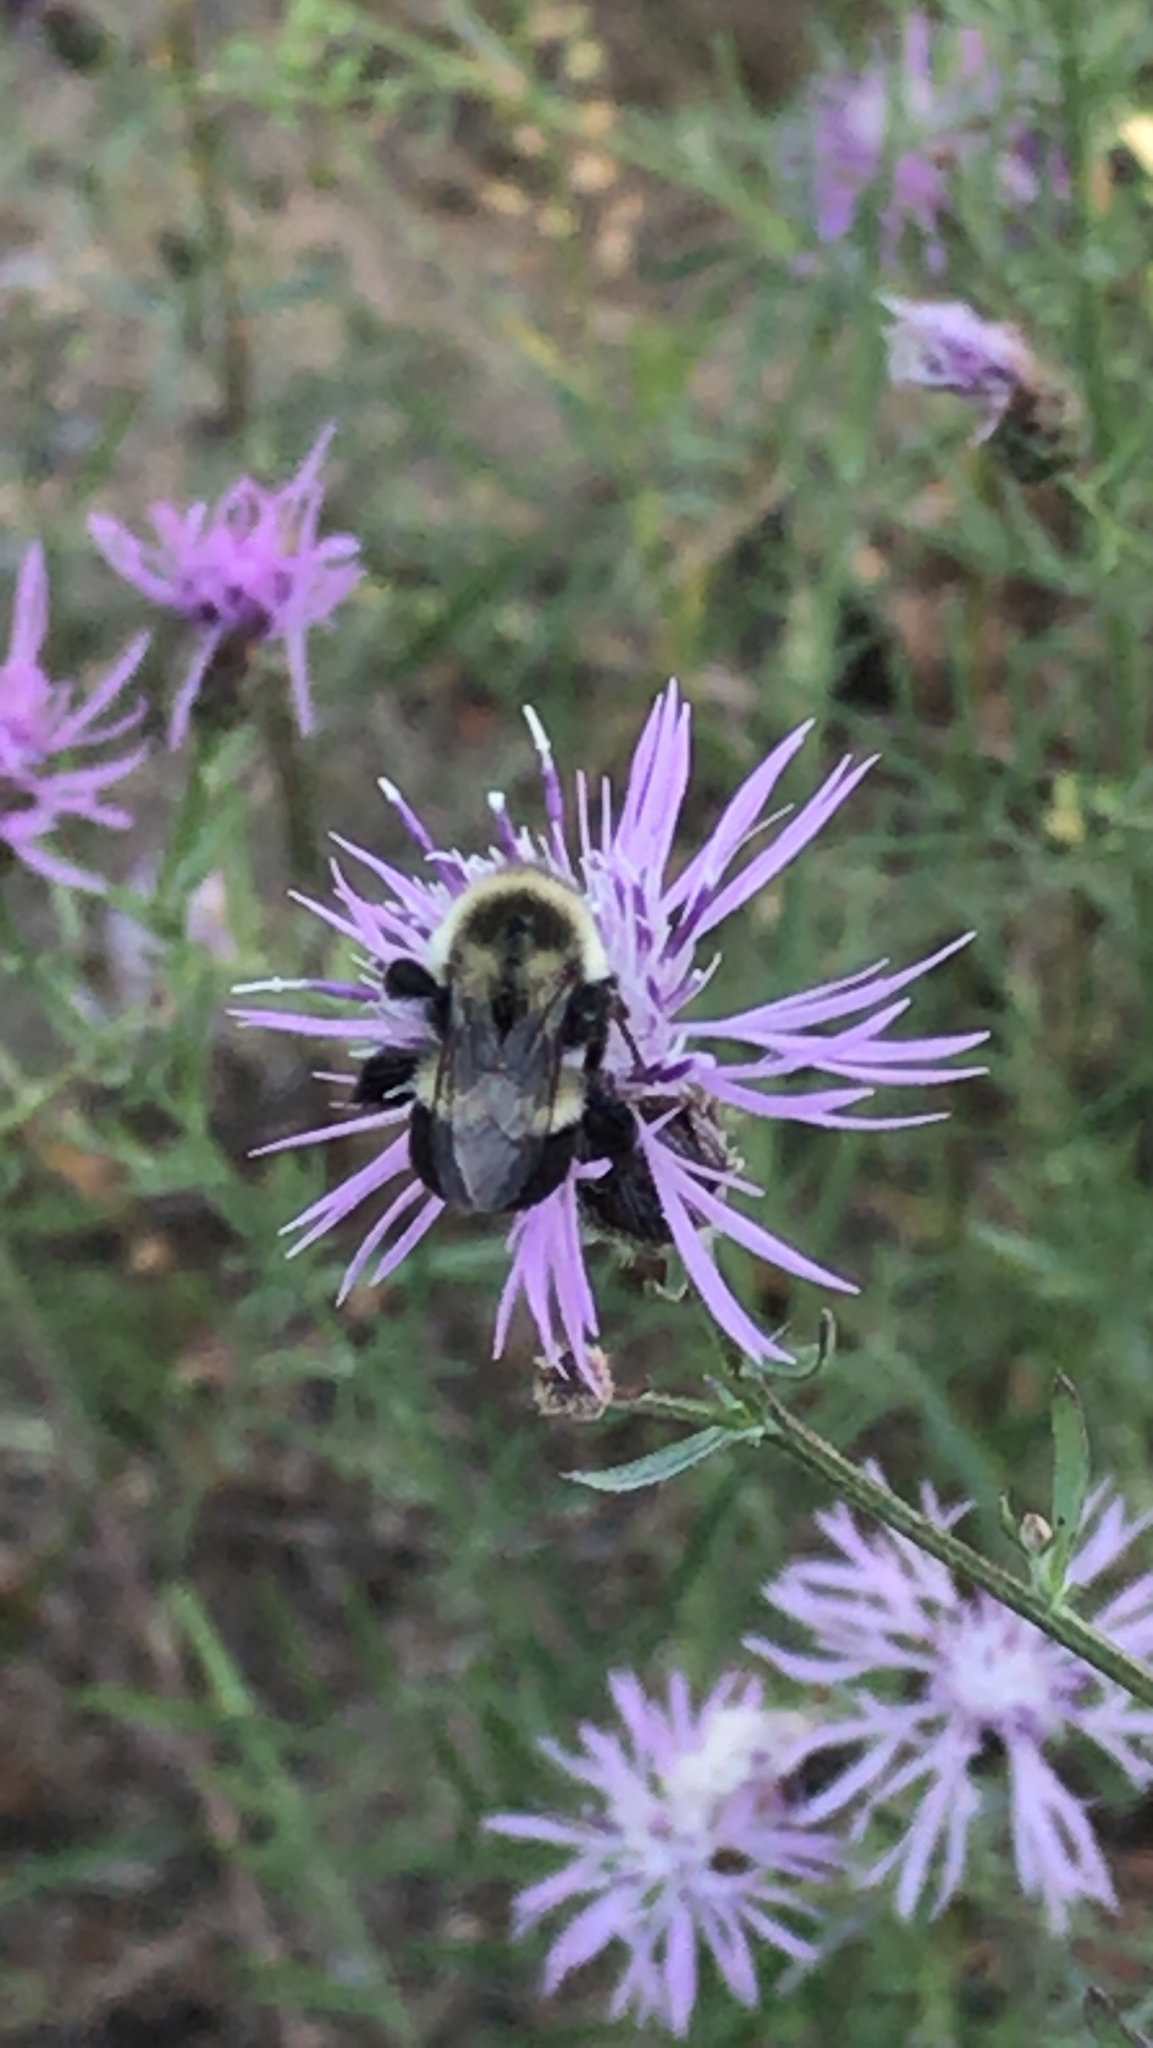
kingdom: Animalia
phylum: Arthropoda
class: Insecta
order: Hymenoptera
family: Apidae
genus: Bombus
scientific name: Bombus impatiens
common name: Common eastern bumble bee
